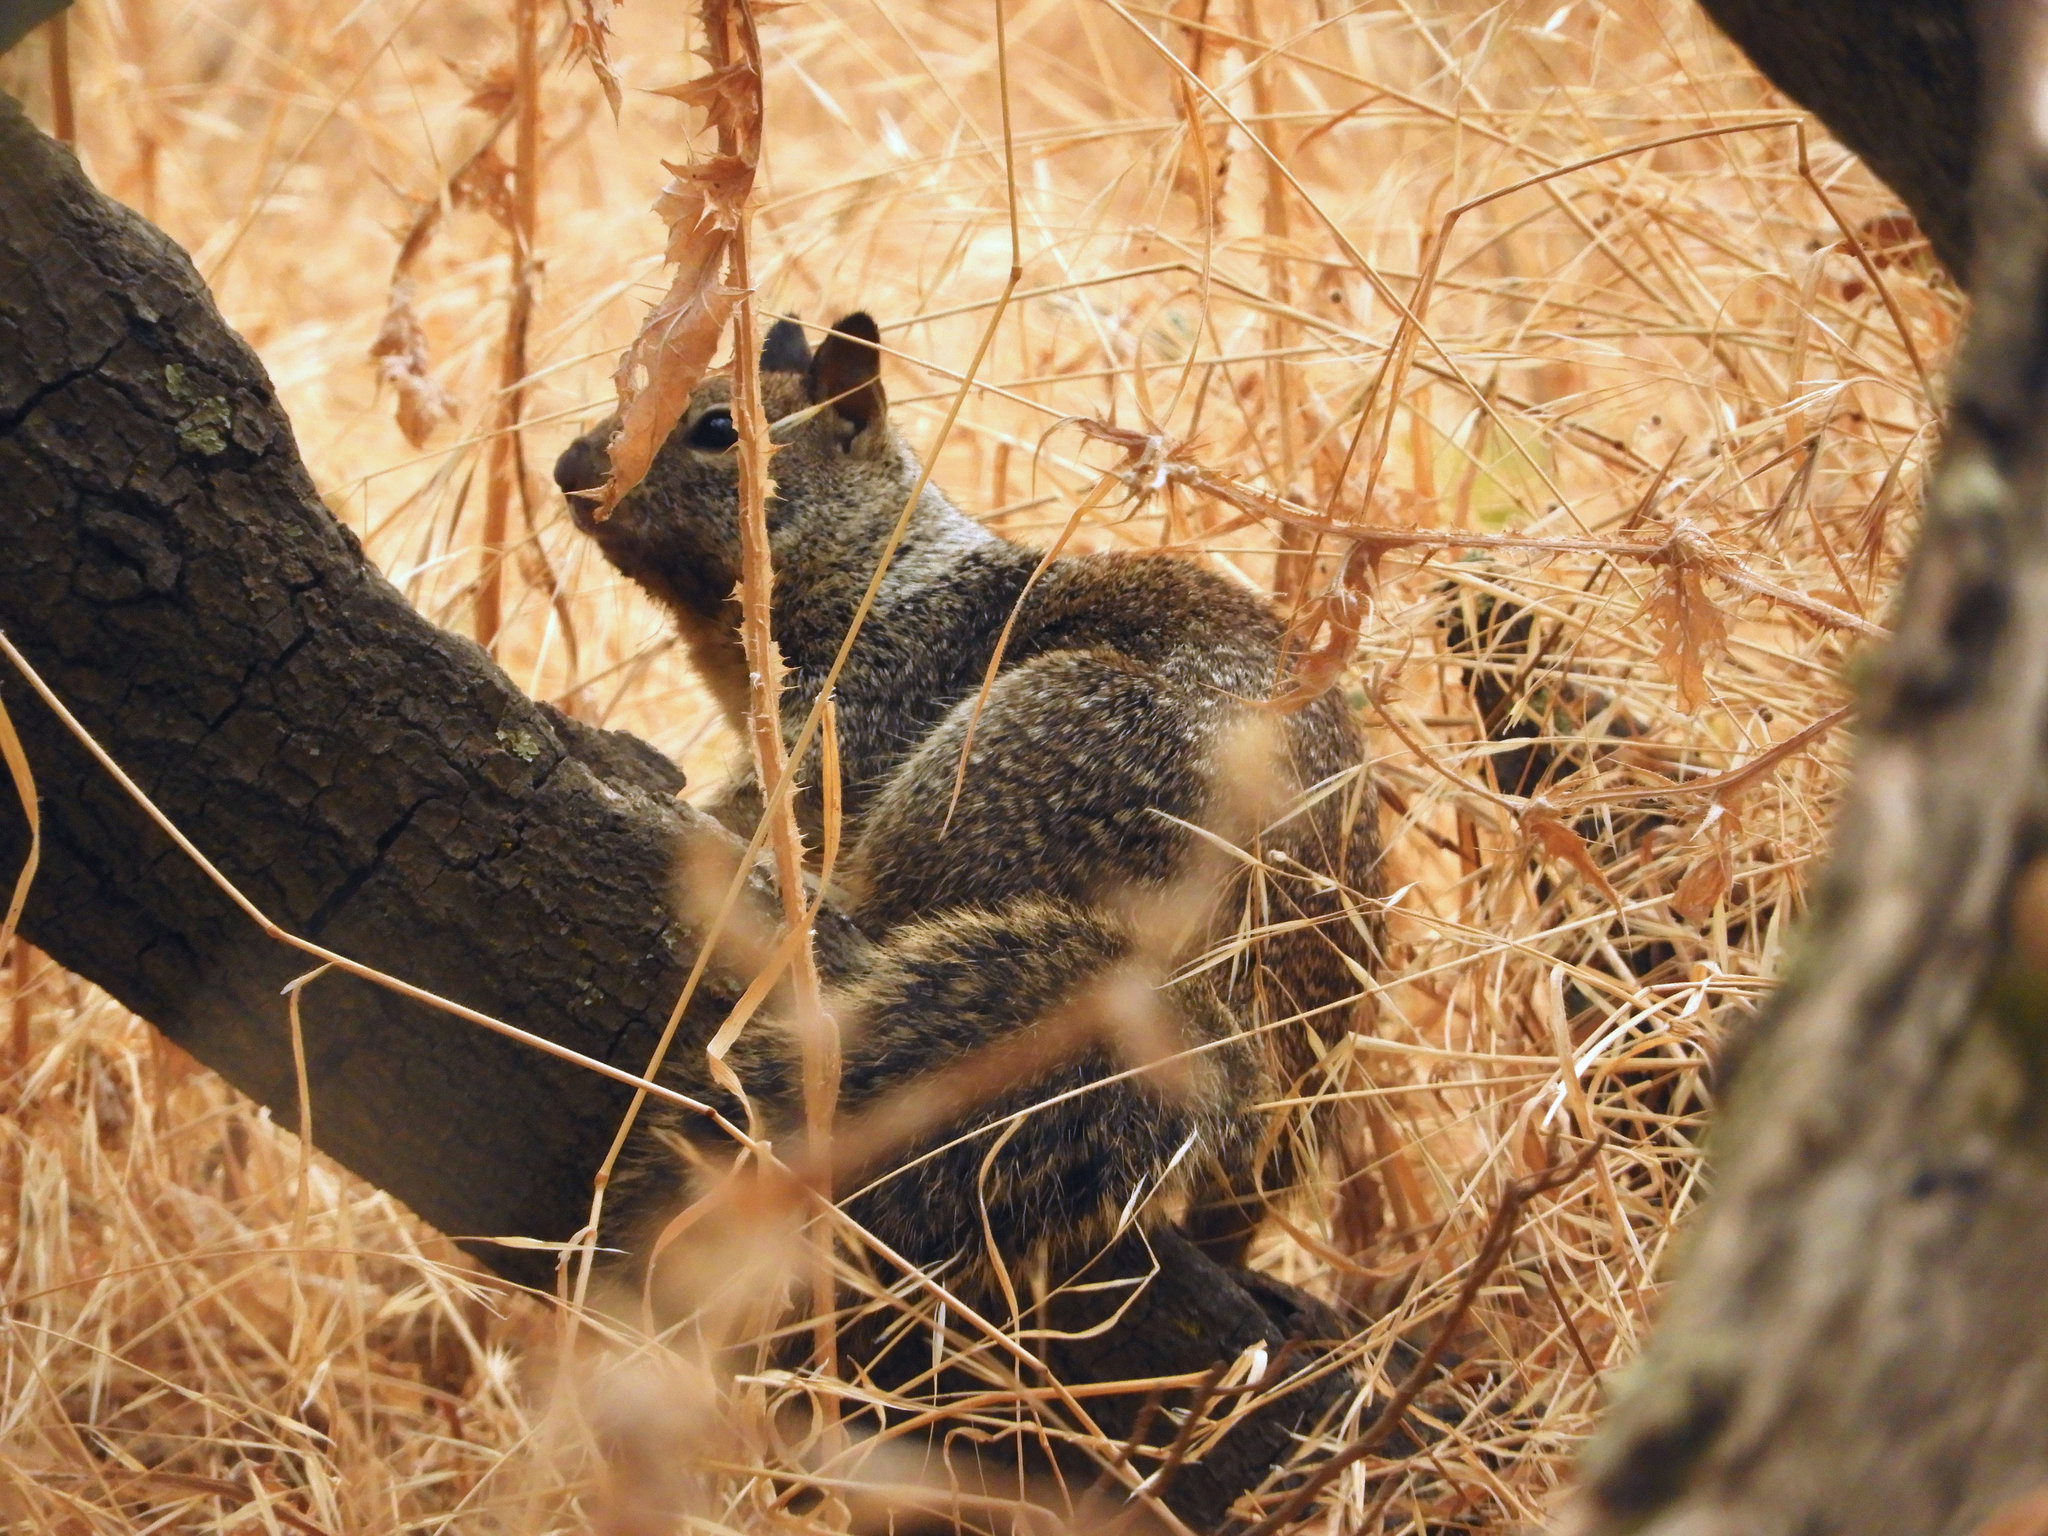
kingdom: Animalia
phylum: Chordata
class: Mammalia
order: Rodentia
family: Sciuridae
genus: Otospermophilus
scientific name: Otospermophilus beecheyi
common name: California ground squirrel
